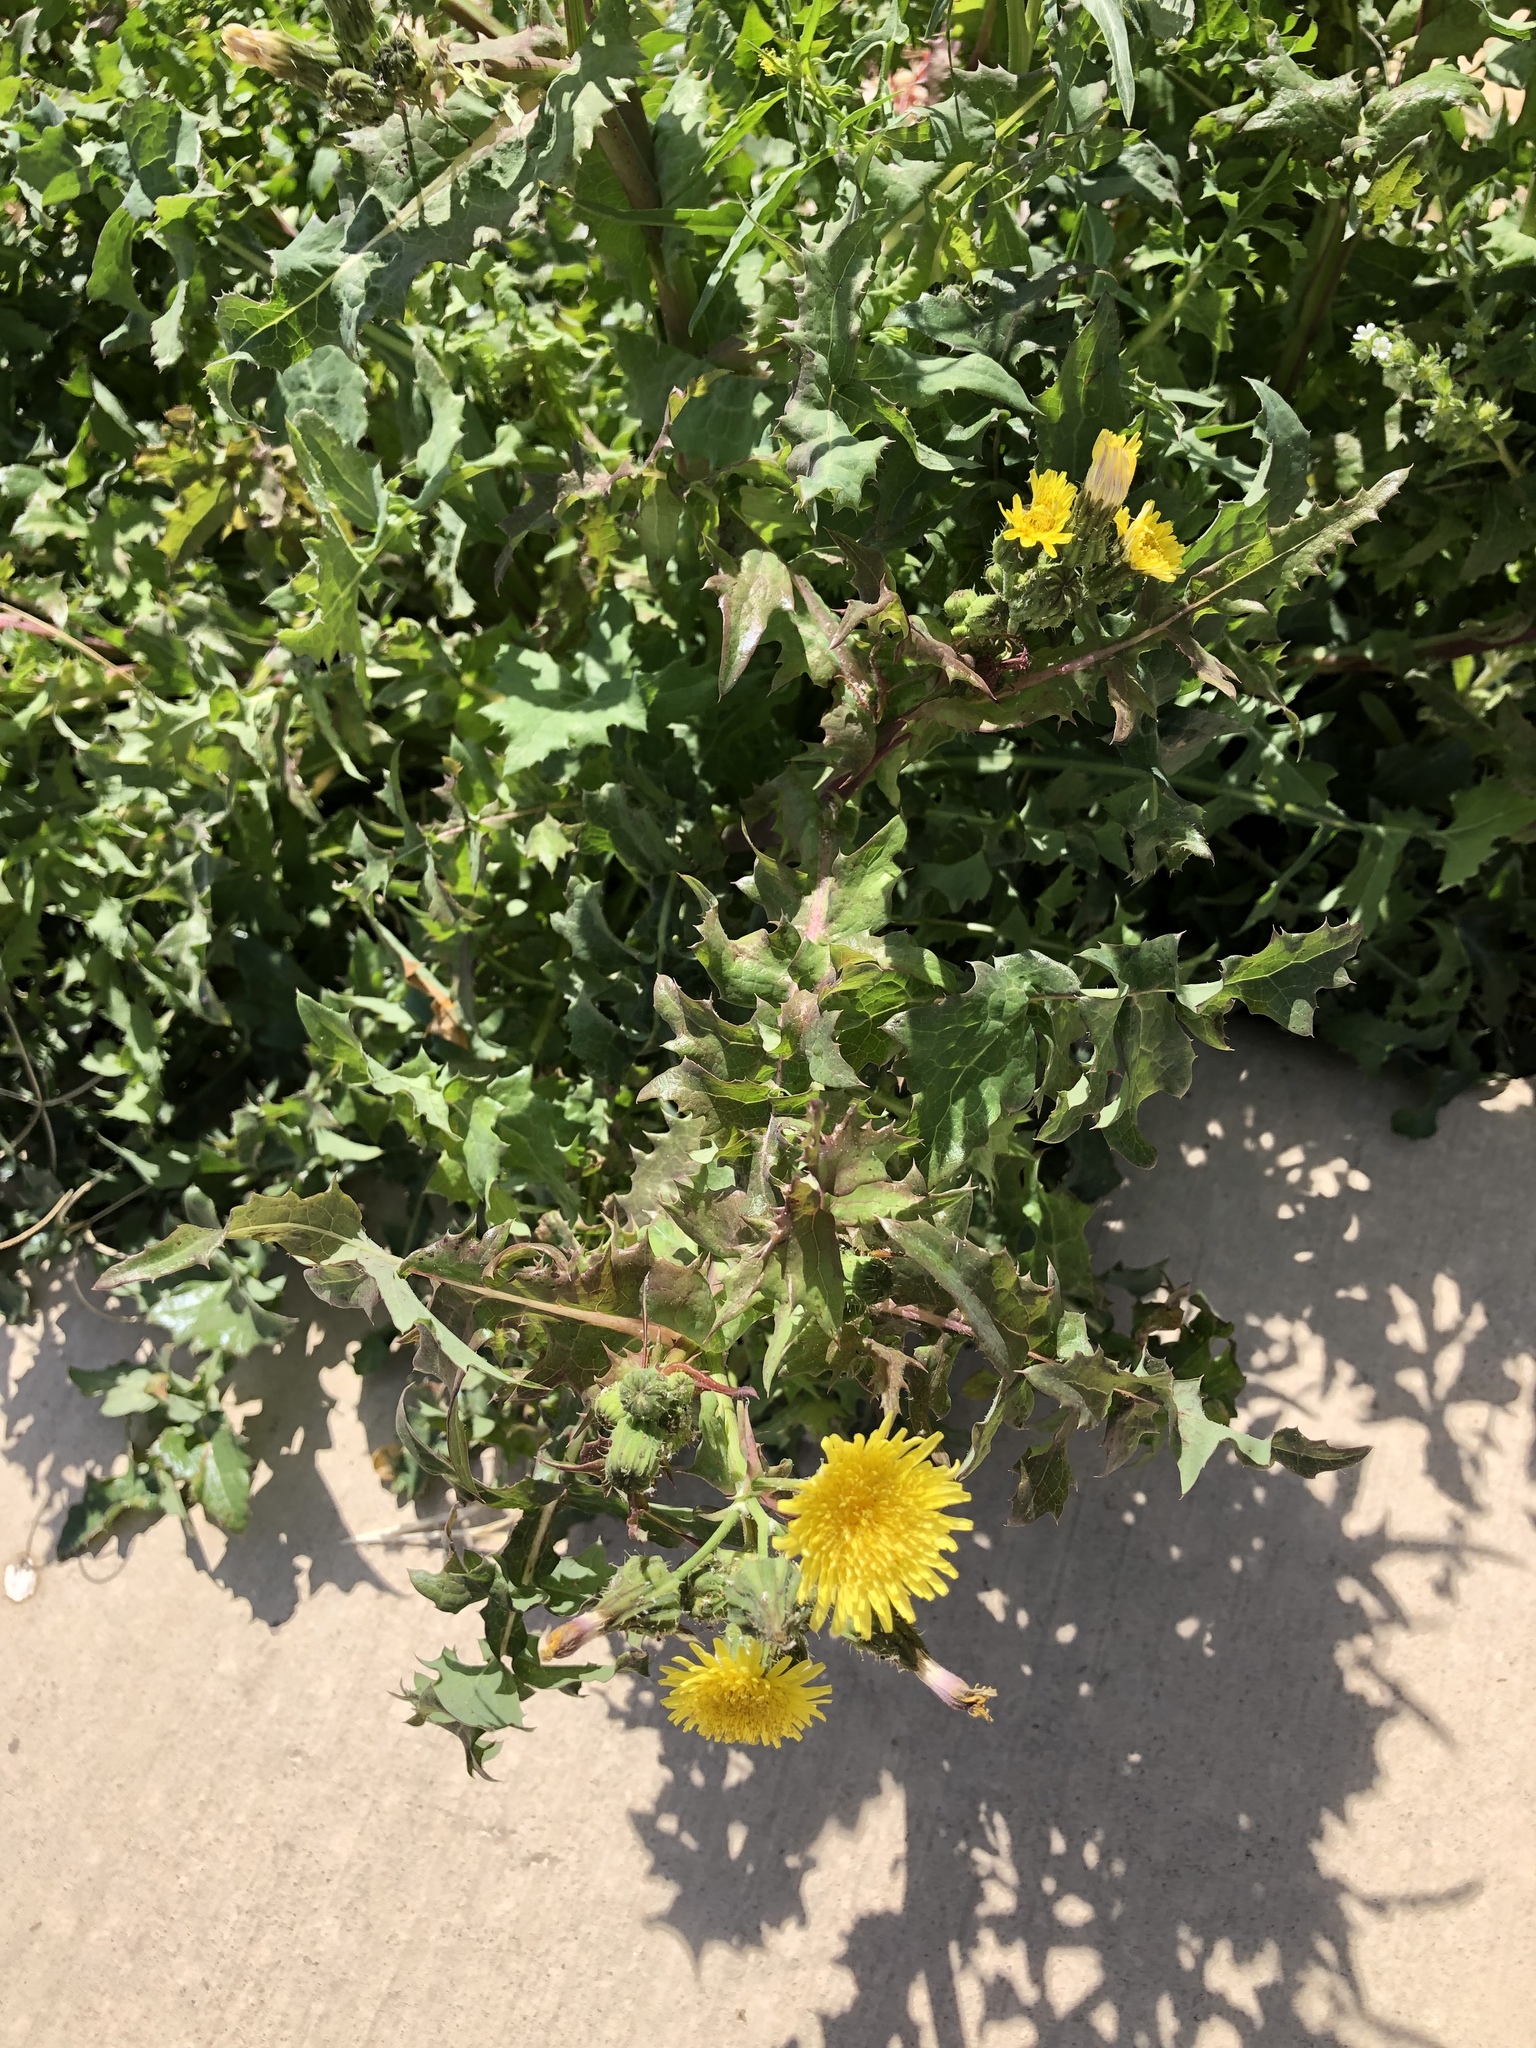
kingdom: Plantae
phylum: Tracheophyta
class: Magnoliopsida
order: Asterales
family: Asteraceae
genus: Sonchus
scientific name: Sonchus asper
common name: Prickly sow-thistle
